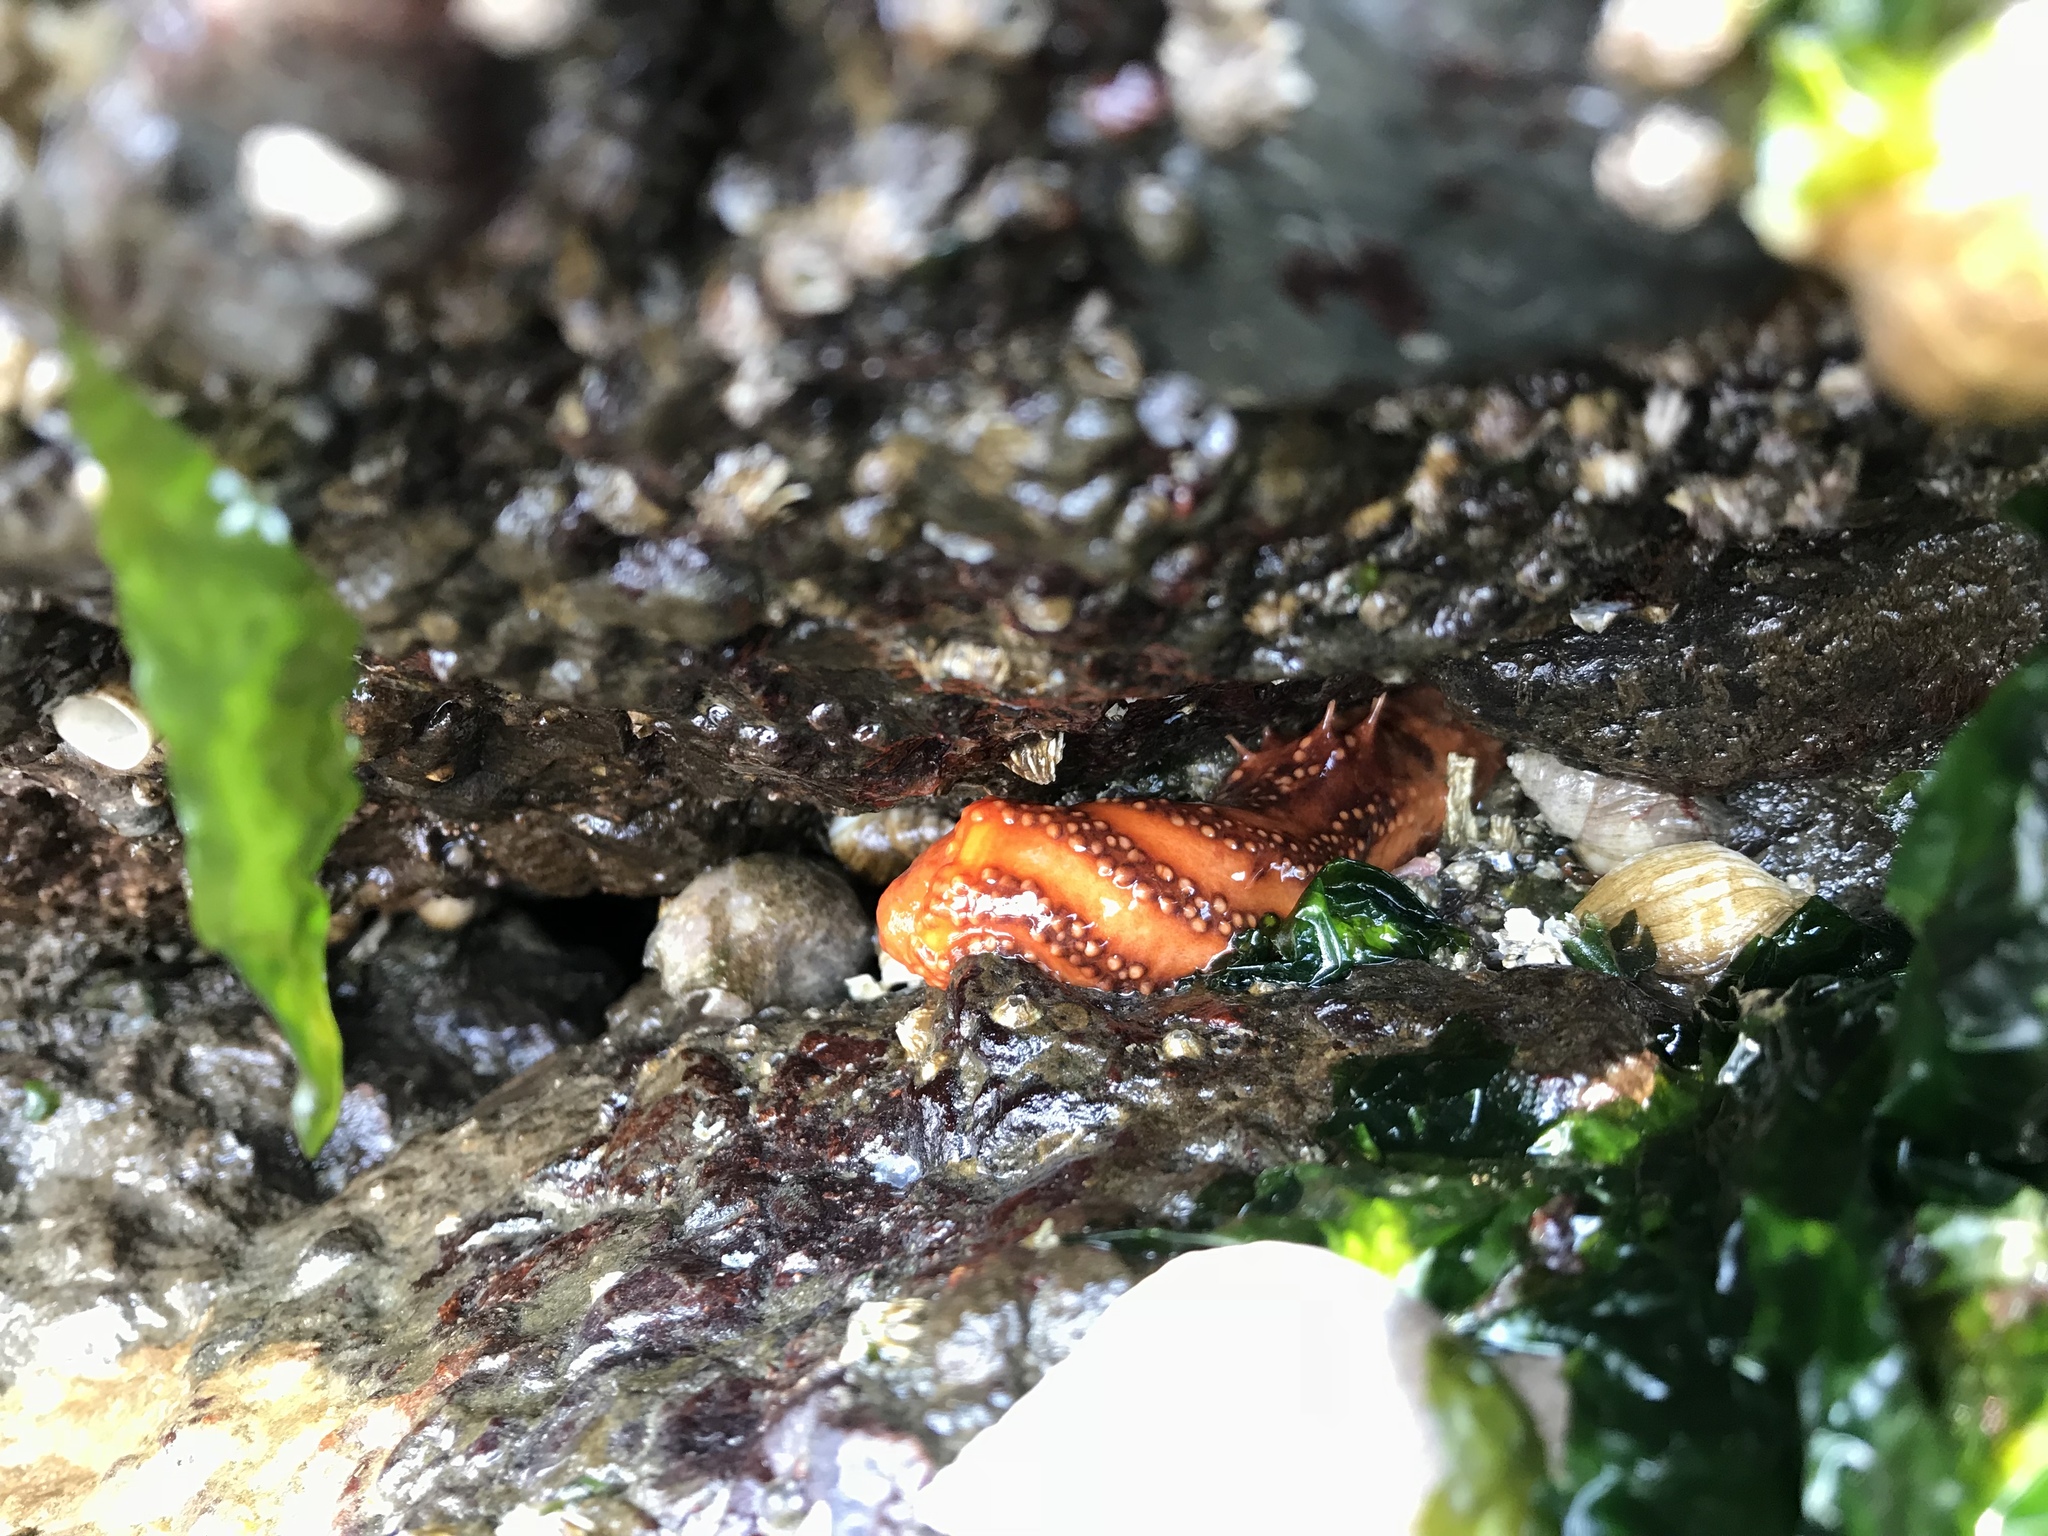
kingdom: Animalia
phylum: Echinodermata
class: Holothuroidea
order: Dendrochirotida
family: Cucumariidae
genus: Cucumaria
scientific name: Cucumaria miniata
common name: Orange sea cucumber
